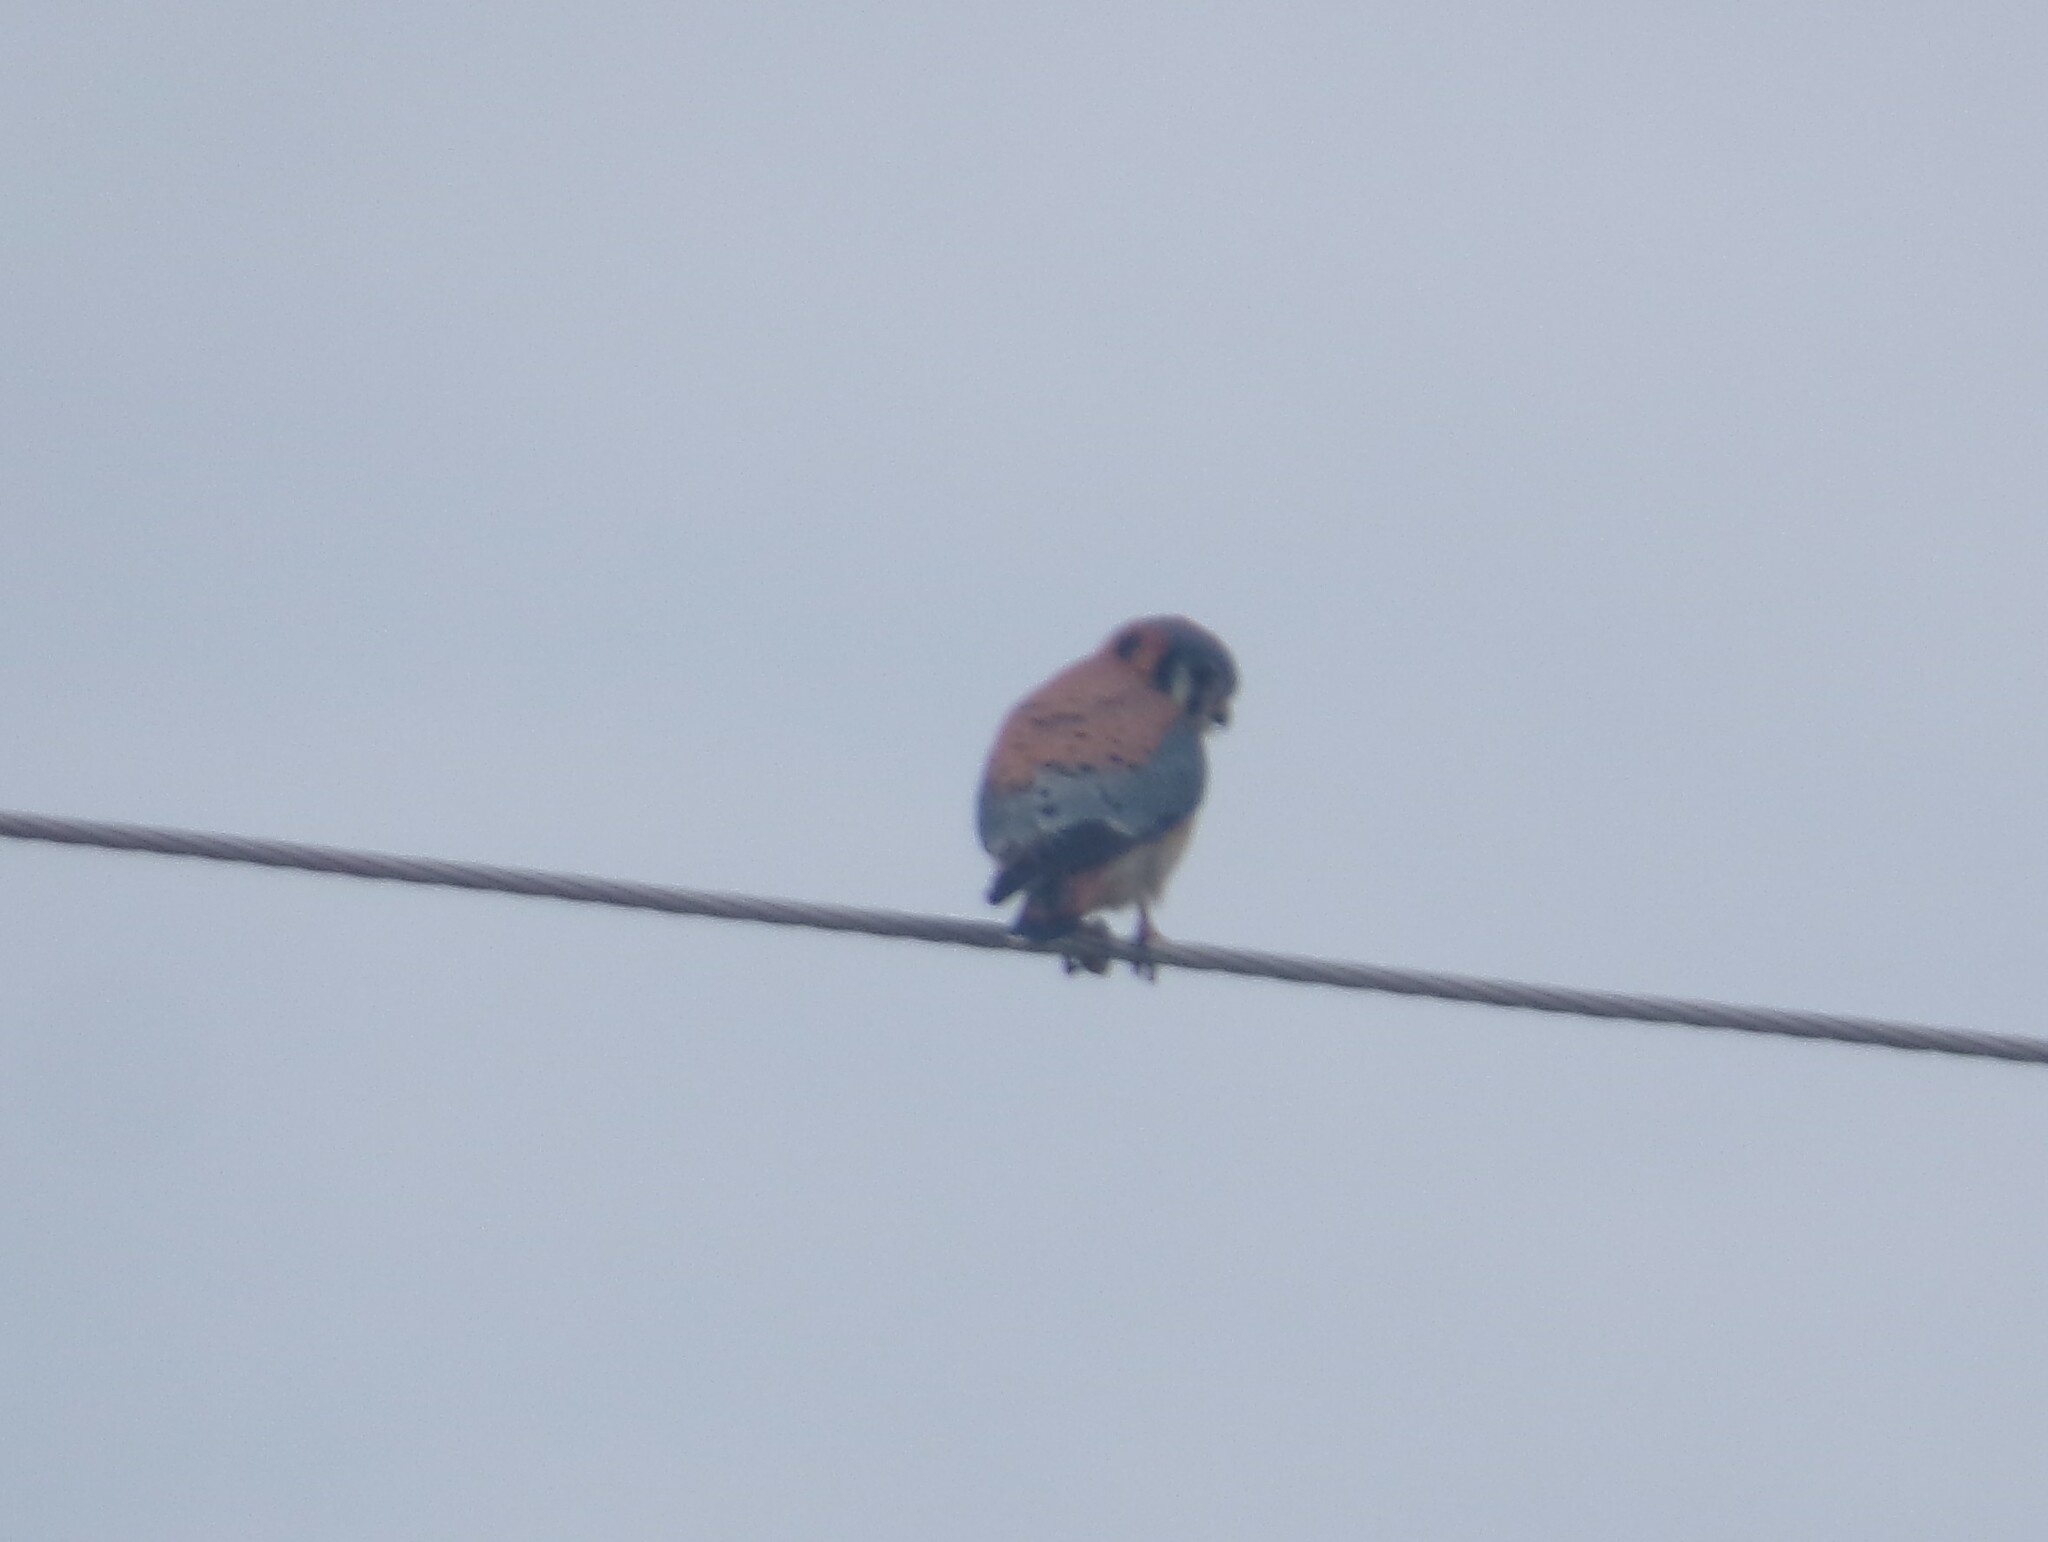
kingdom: Animalia
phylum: Chordata
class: Aves
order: Falconiformes
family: Falconidae
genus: Falco
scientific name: Falco sparverius
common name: American kestrel
